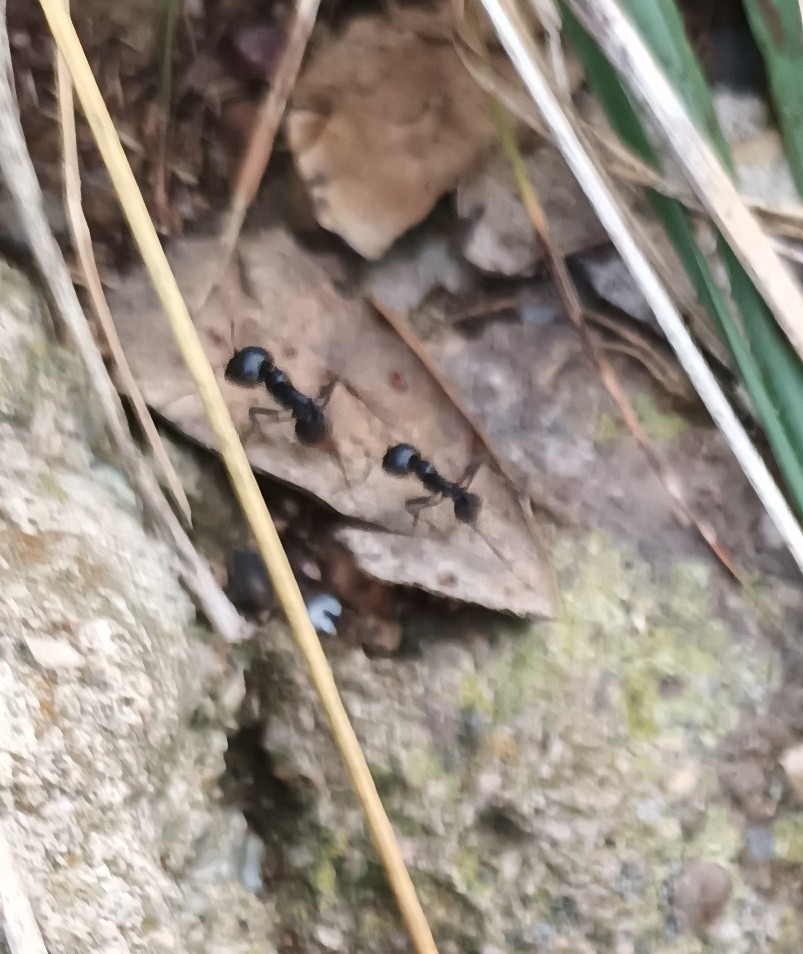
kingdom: Animalia
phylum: Arthropoda
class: Insecta
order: Hymenoptera
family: Formicidae
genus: Messor
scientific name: Messor barbarus
